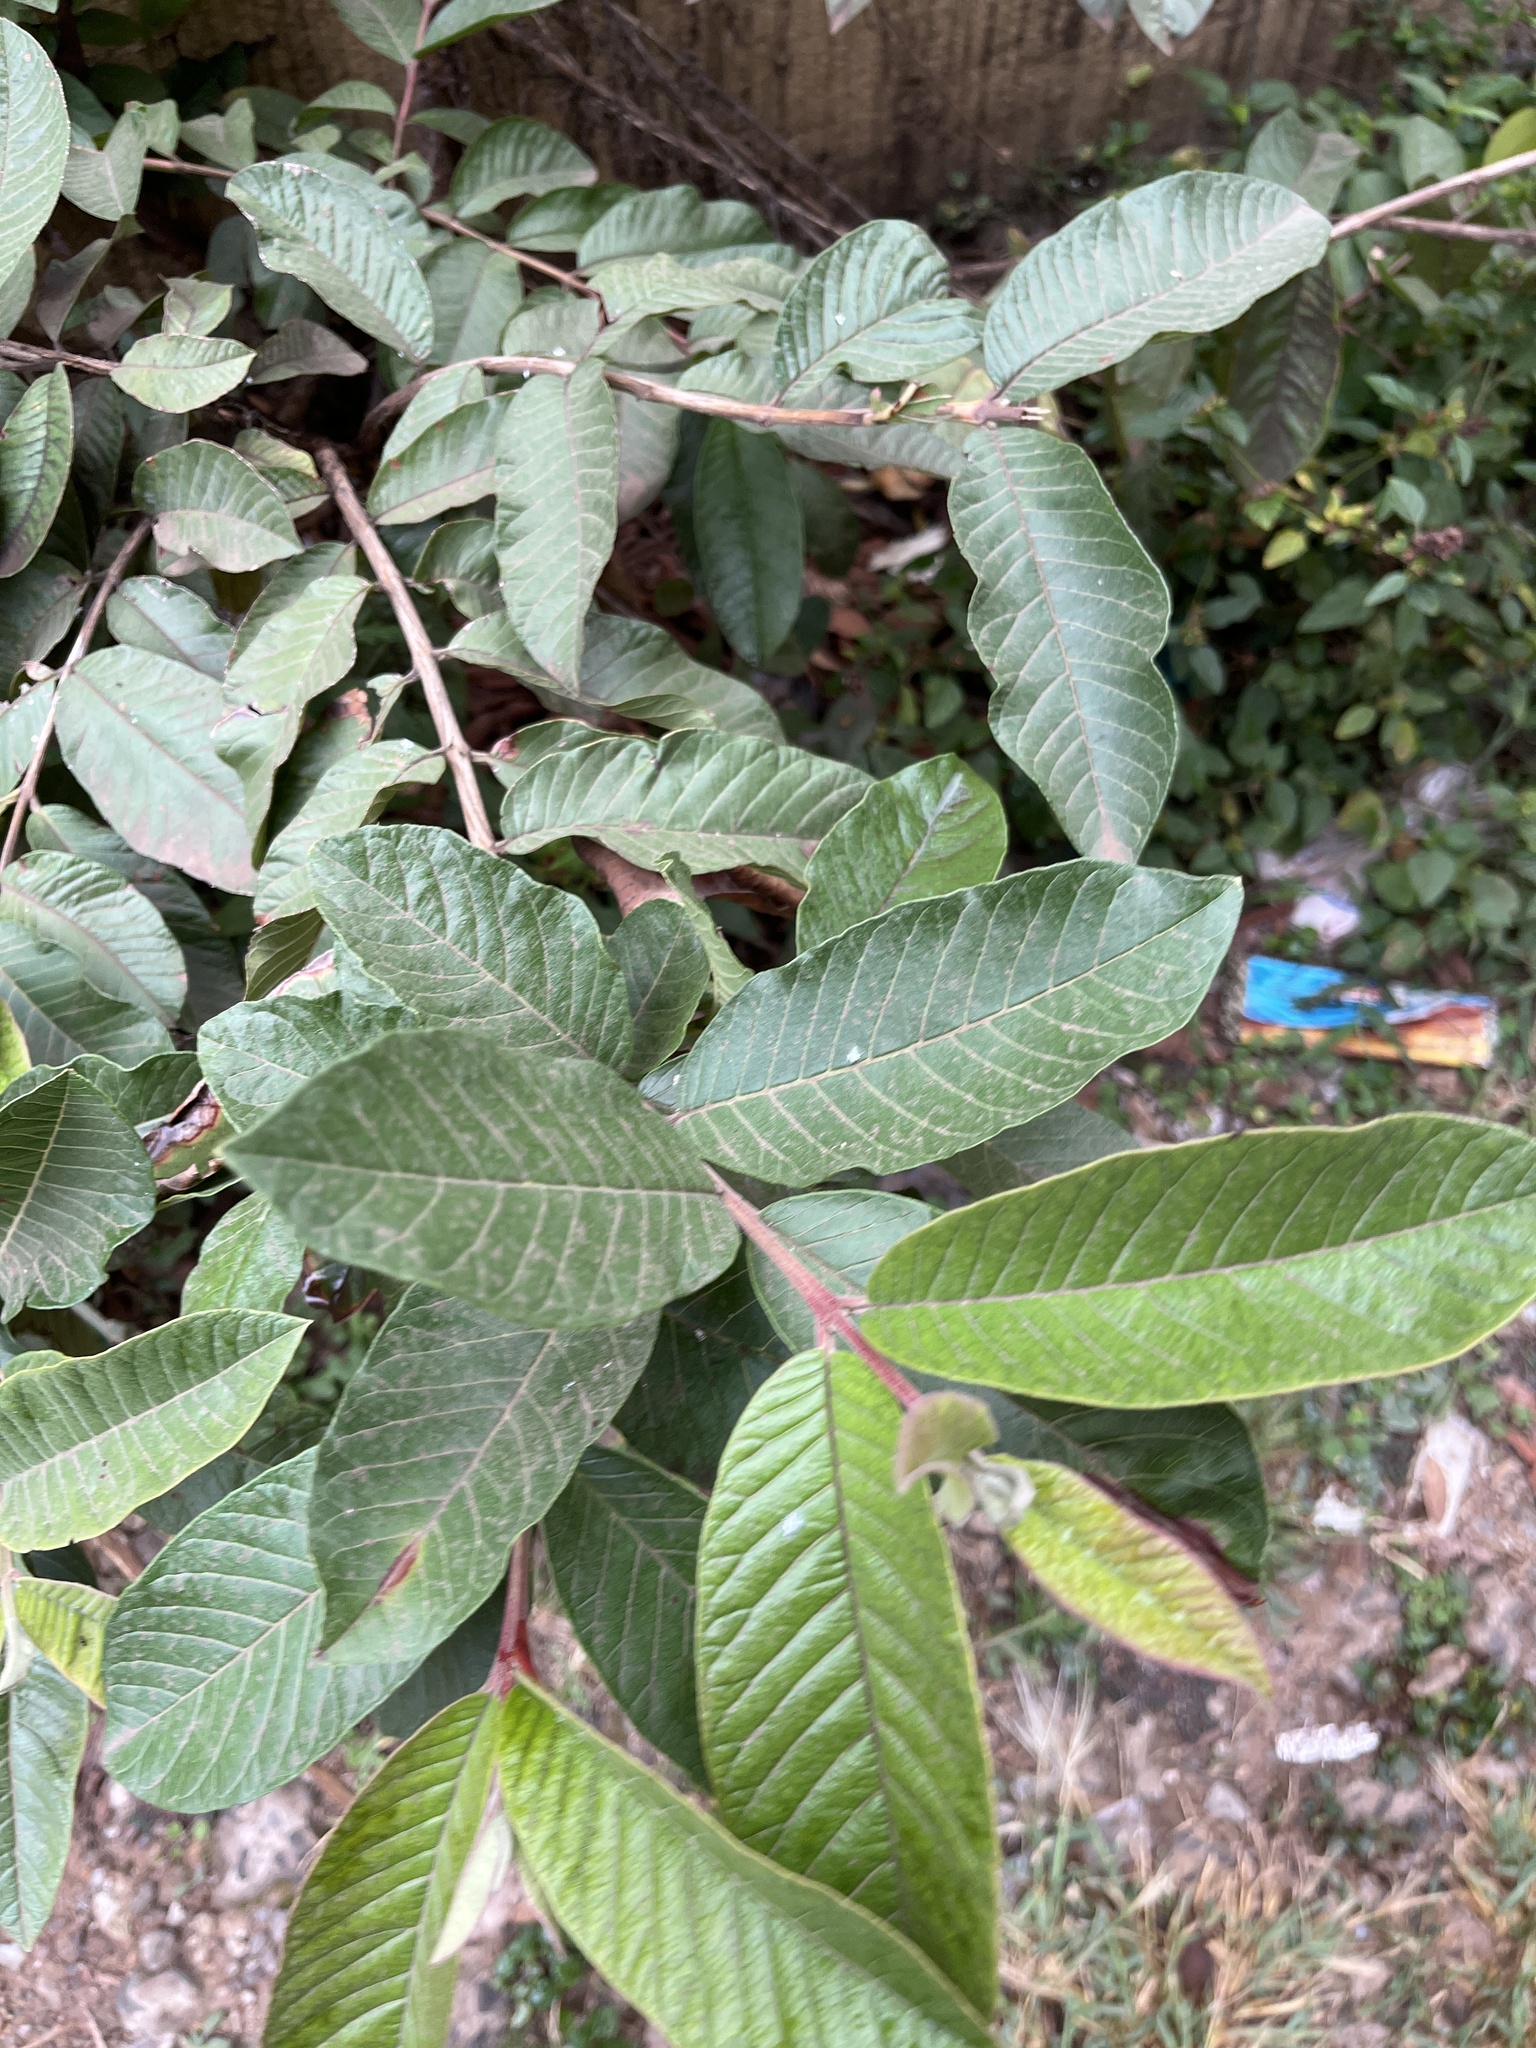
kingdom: Plantae
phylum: Tracheophyta
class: Magnoliopsida
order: Myrtales
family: Myrtaceae
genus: Psidium
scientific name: Psidium guajava
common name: Guava
